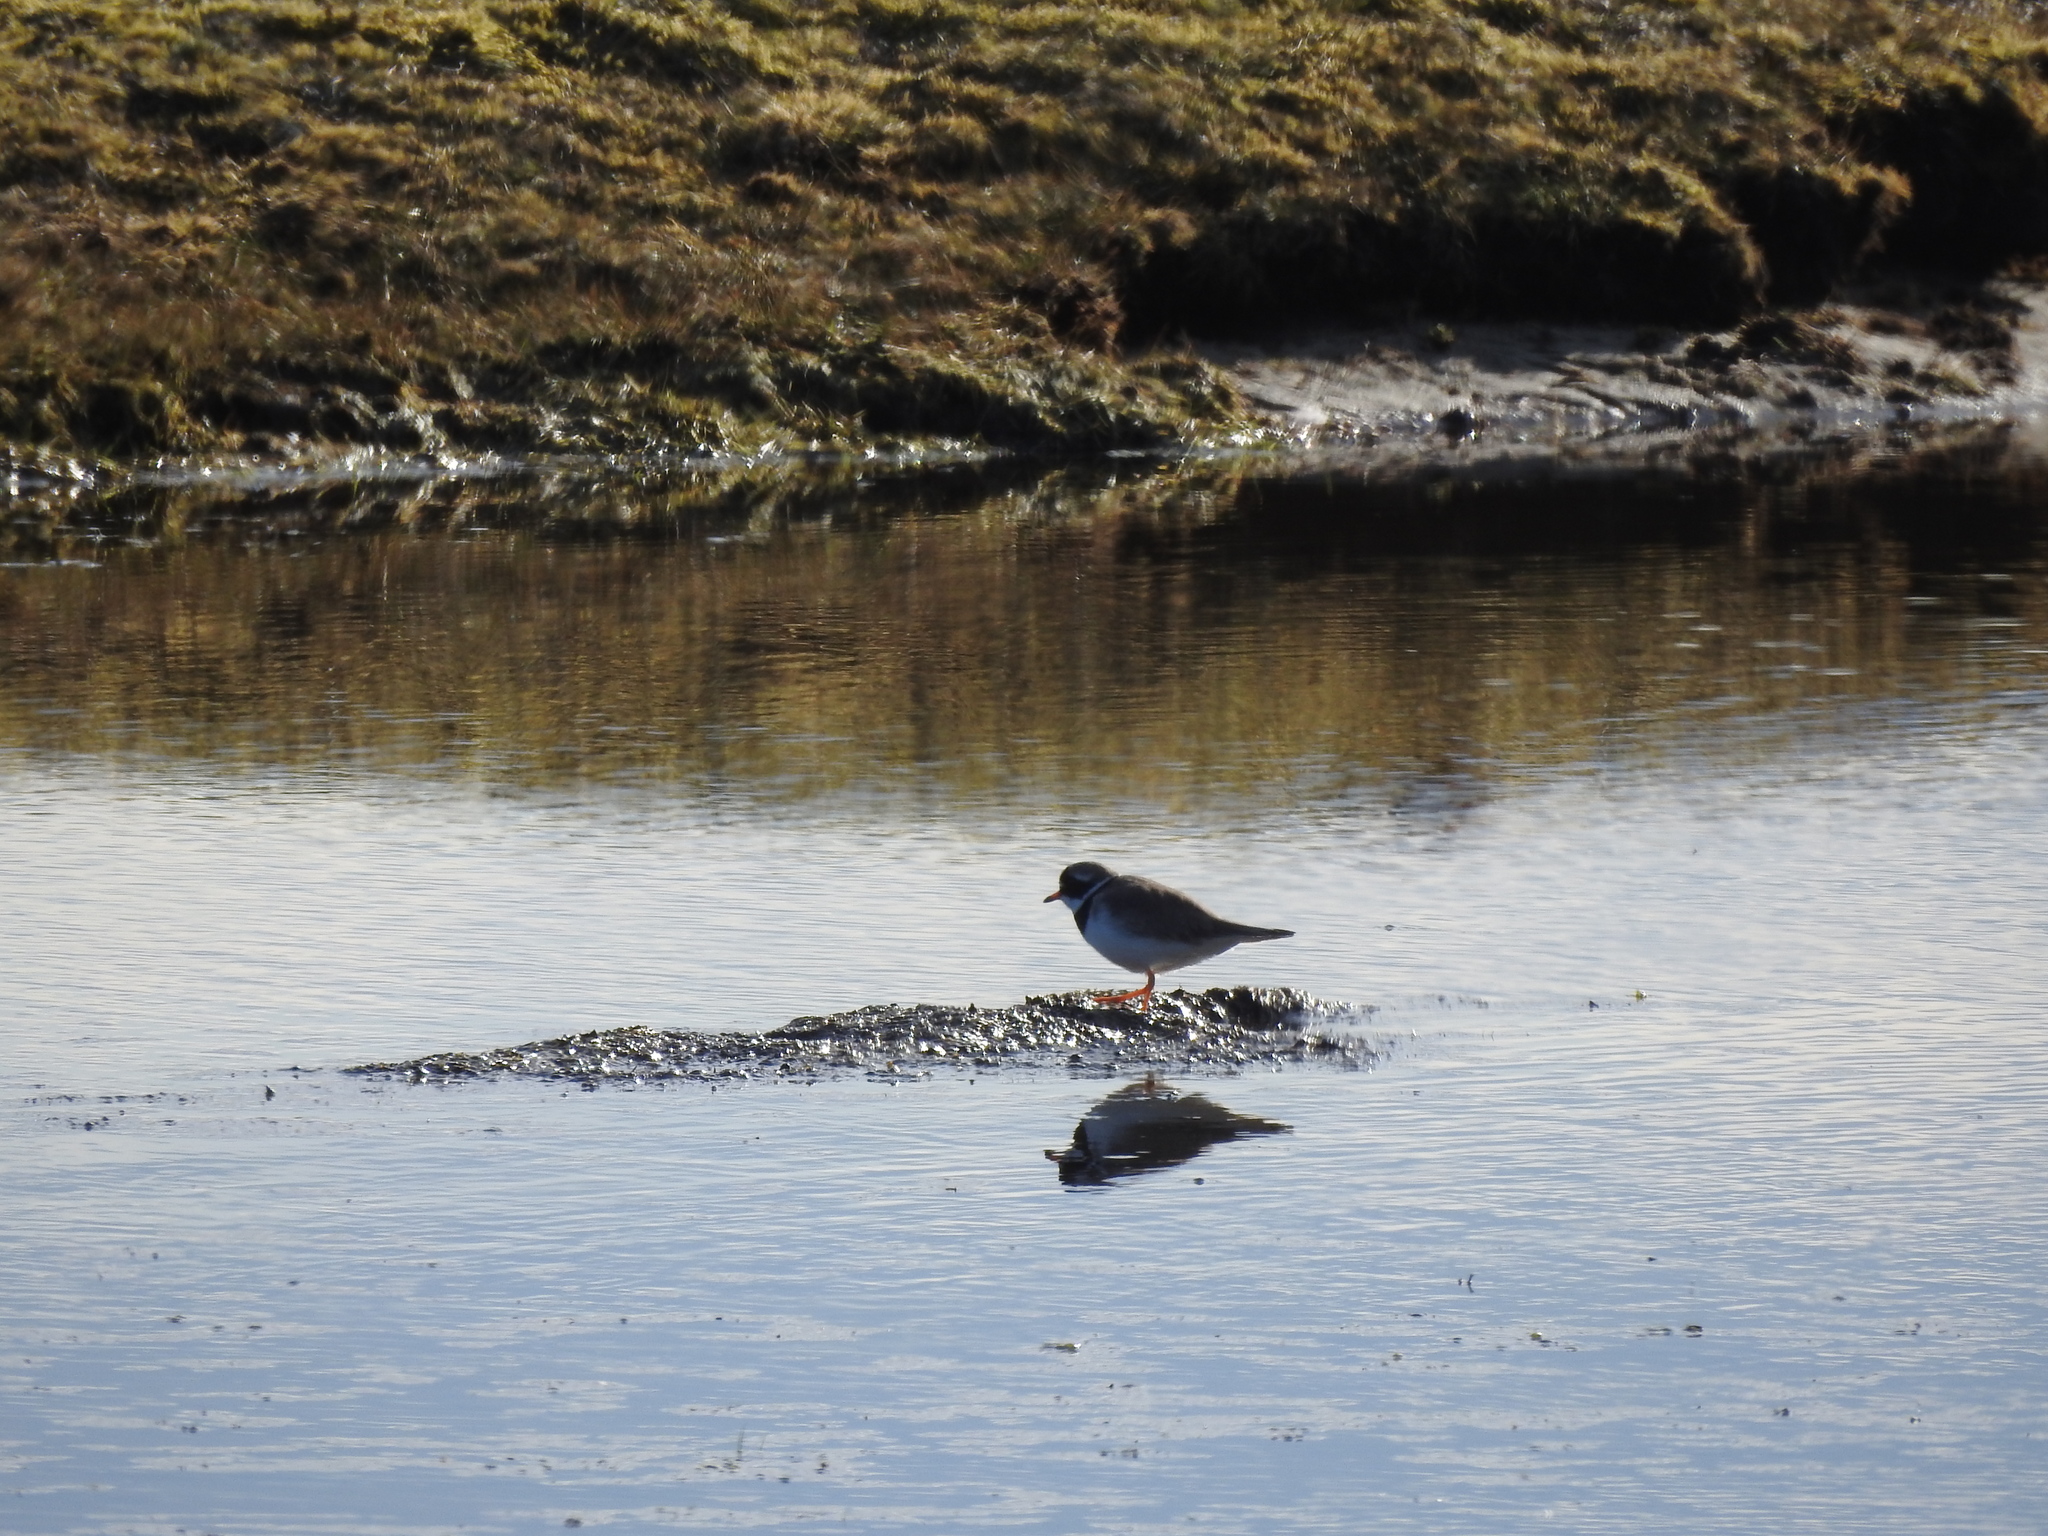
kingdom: Animalia
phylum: Chordata
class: Aves
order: Charadriiformes
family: Charadriidae
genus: Charadrius
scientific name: Charadrius hiaticula
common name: Common ringed plover
